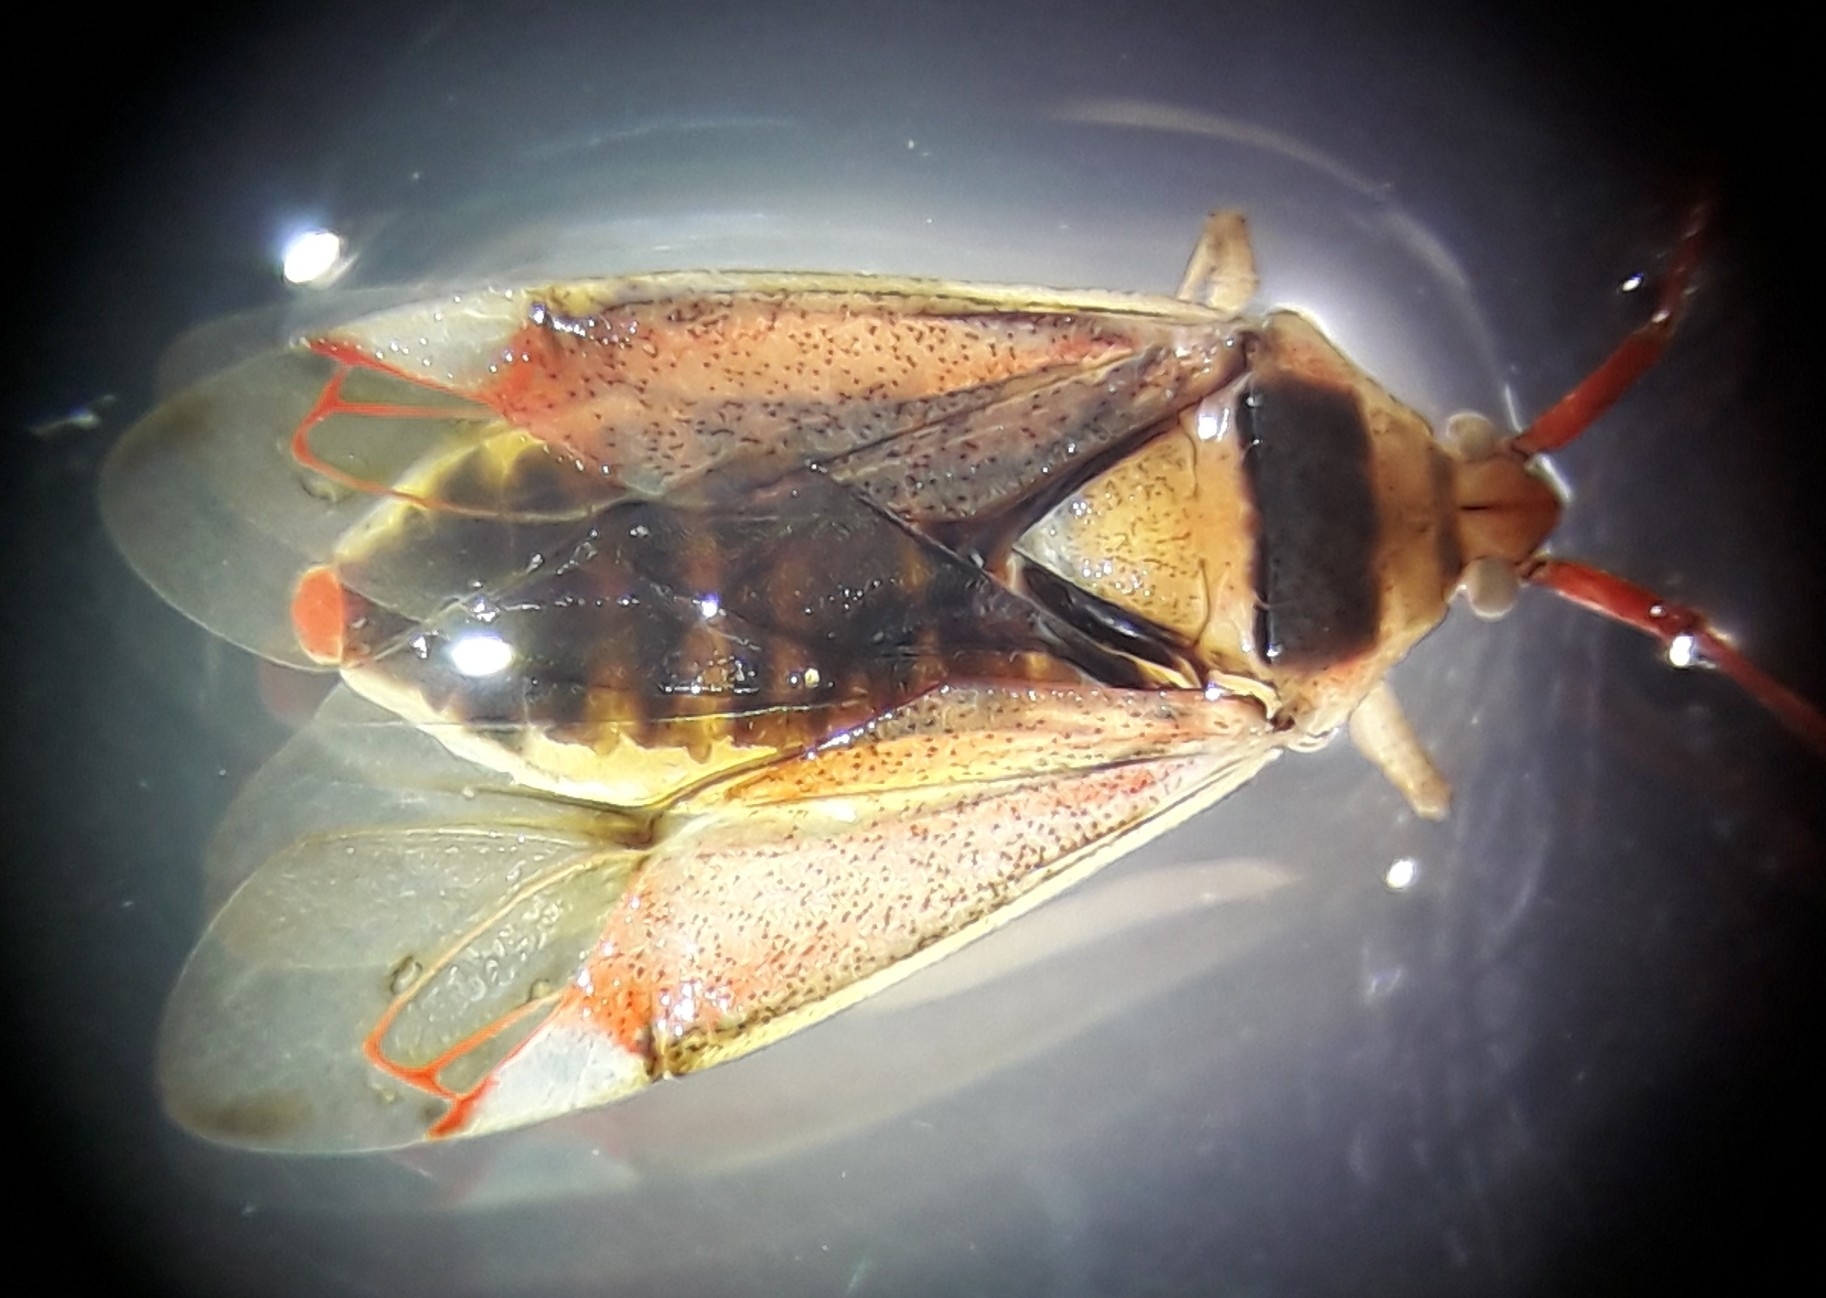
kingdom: Animalia
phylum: Arthropoda
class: Insecta
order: Hemiptera
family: Miridae
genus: Pantilius
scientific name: Pantilius tunicatus
